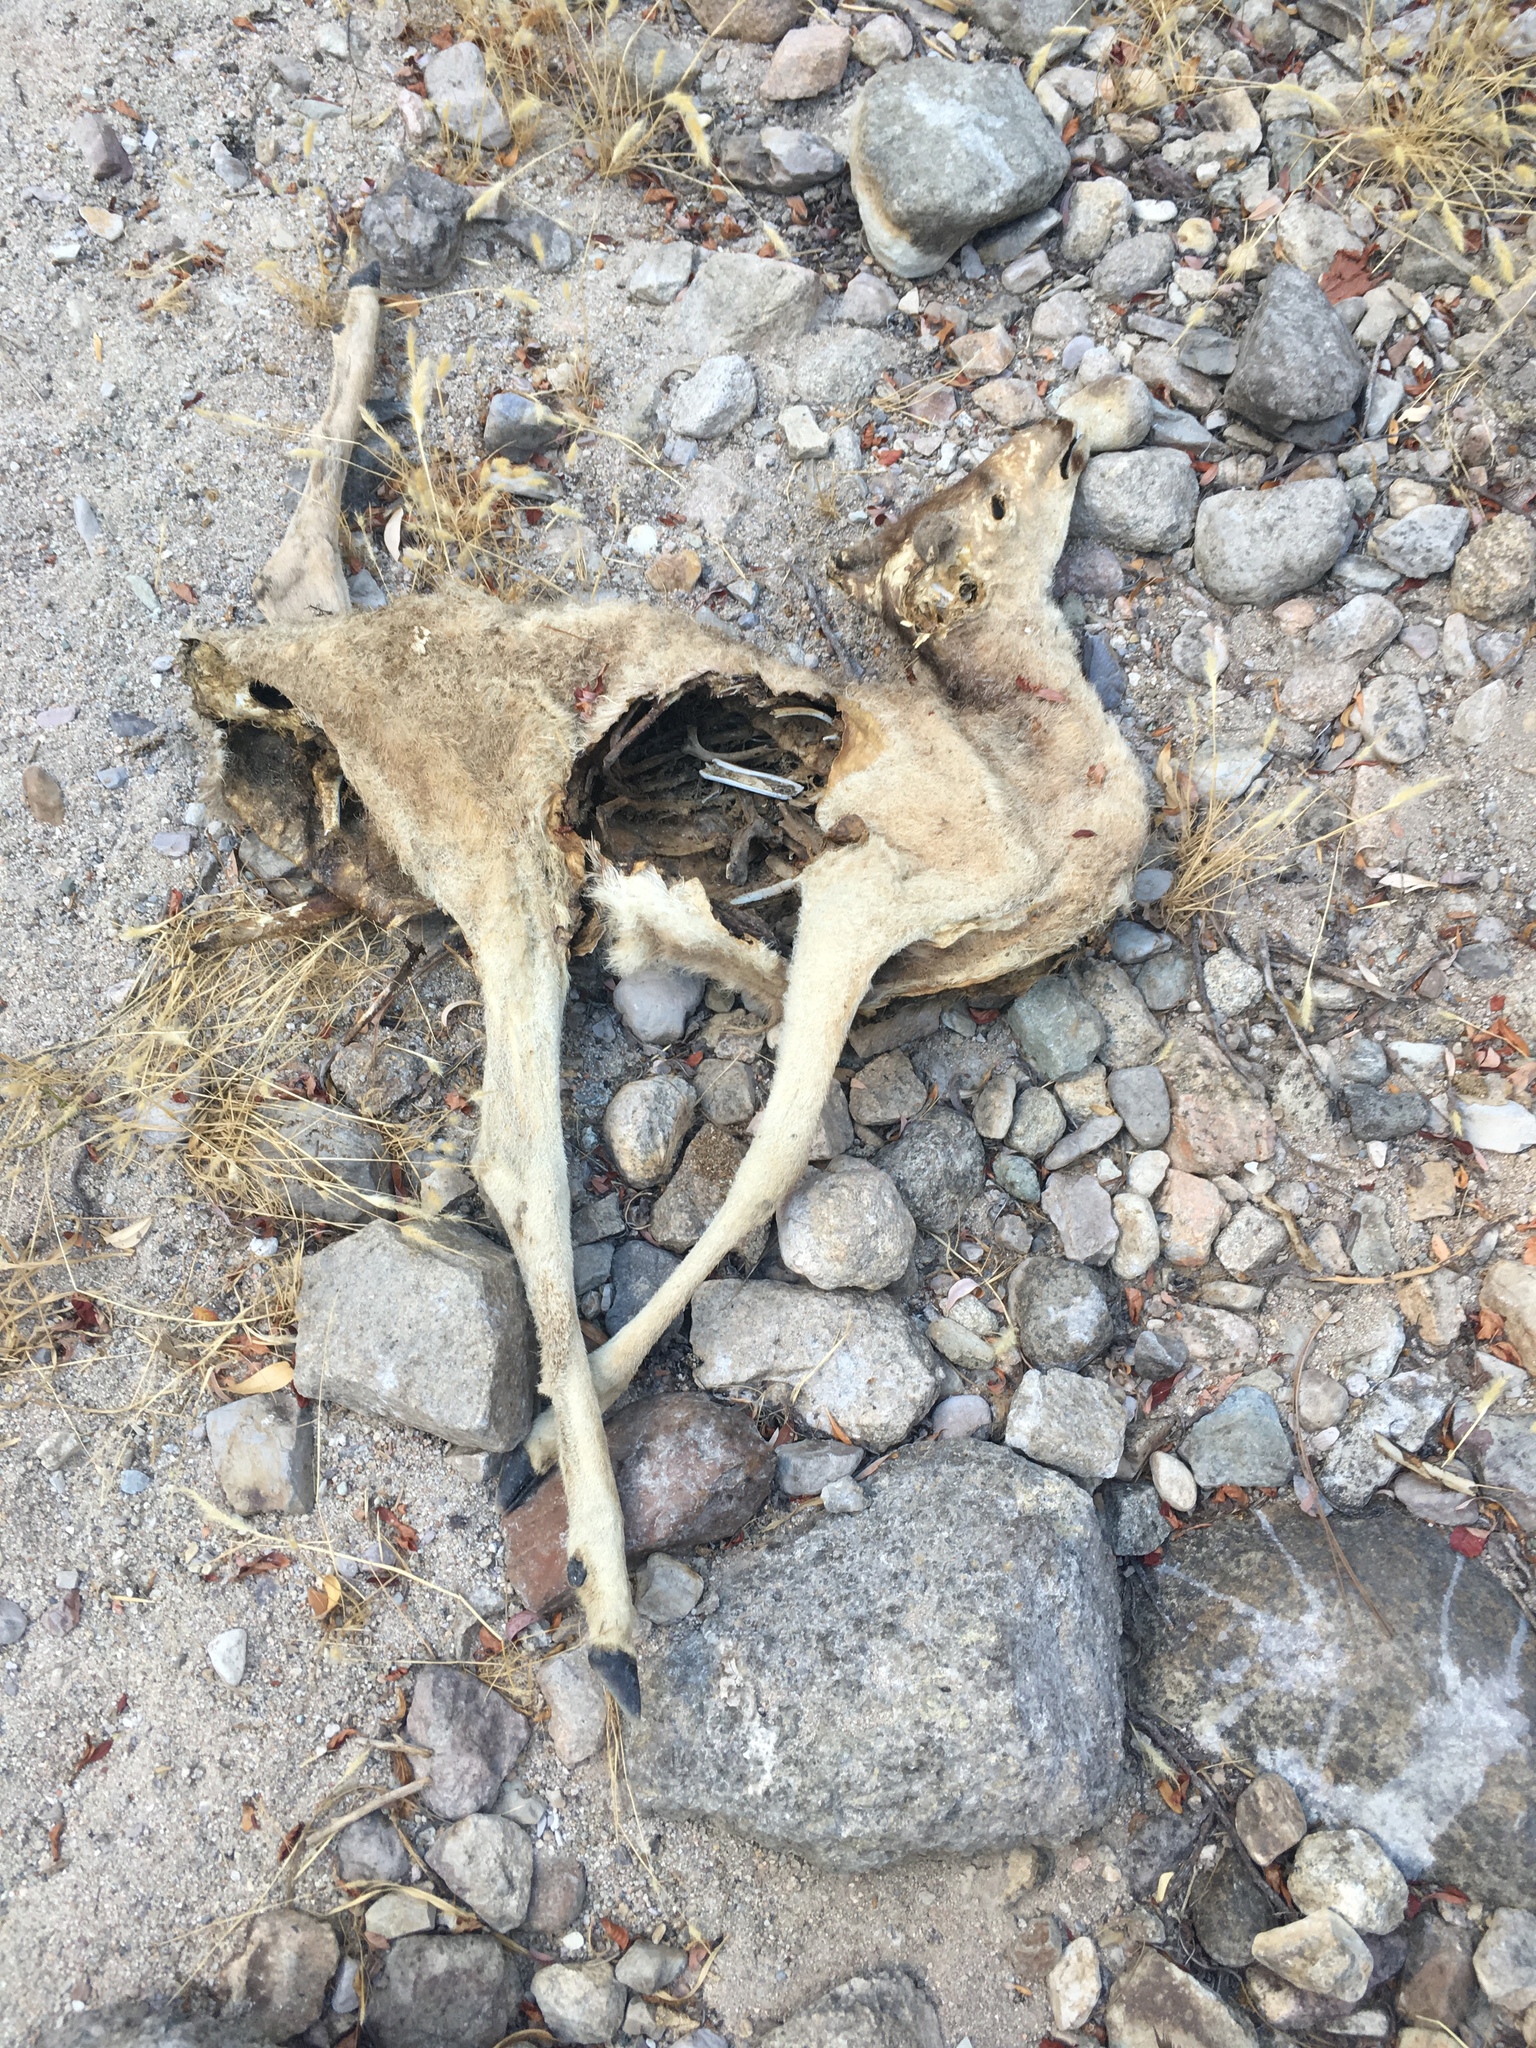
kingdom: Animalia
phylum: Chordata
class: Mammalia
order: Artiodactyla
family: Cervidae
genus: Odocoileus
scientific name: Odocoileus hemionus
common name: Mule deer
